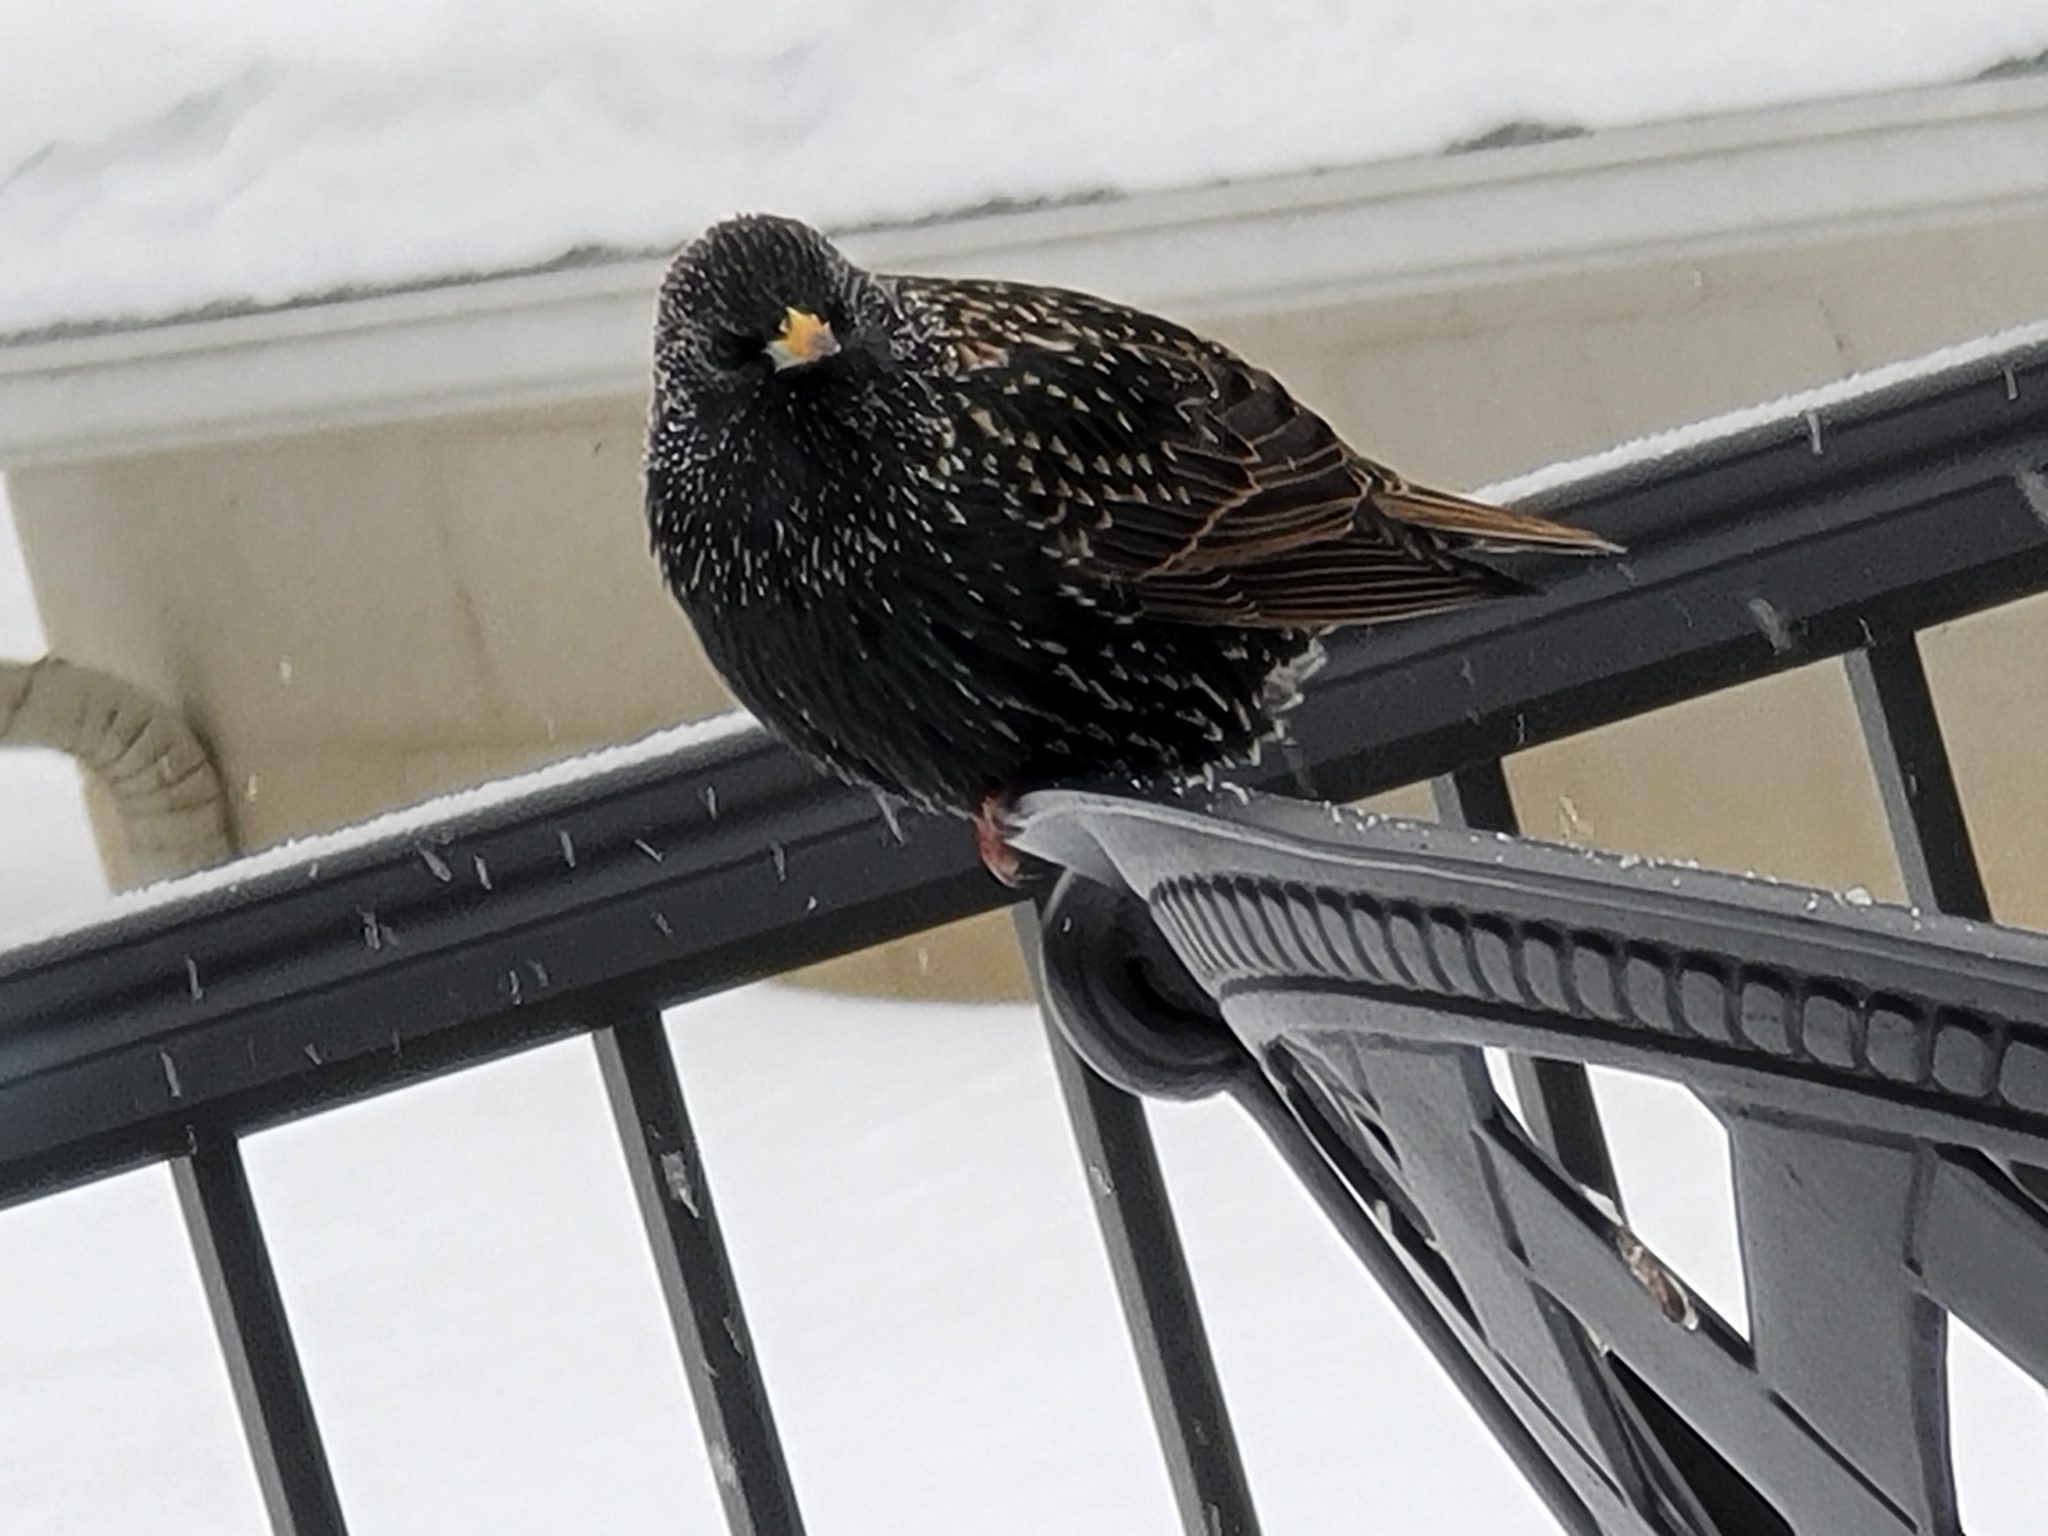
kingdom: Animalia
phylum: Chordata
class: Aves
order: Passeriformes
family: Sturnidae
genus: Sturnus
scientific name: Sturnus vulgaris
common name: Common starling
